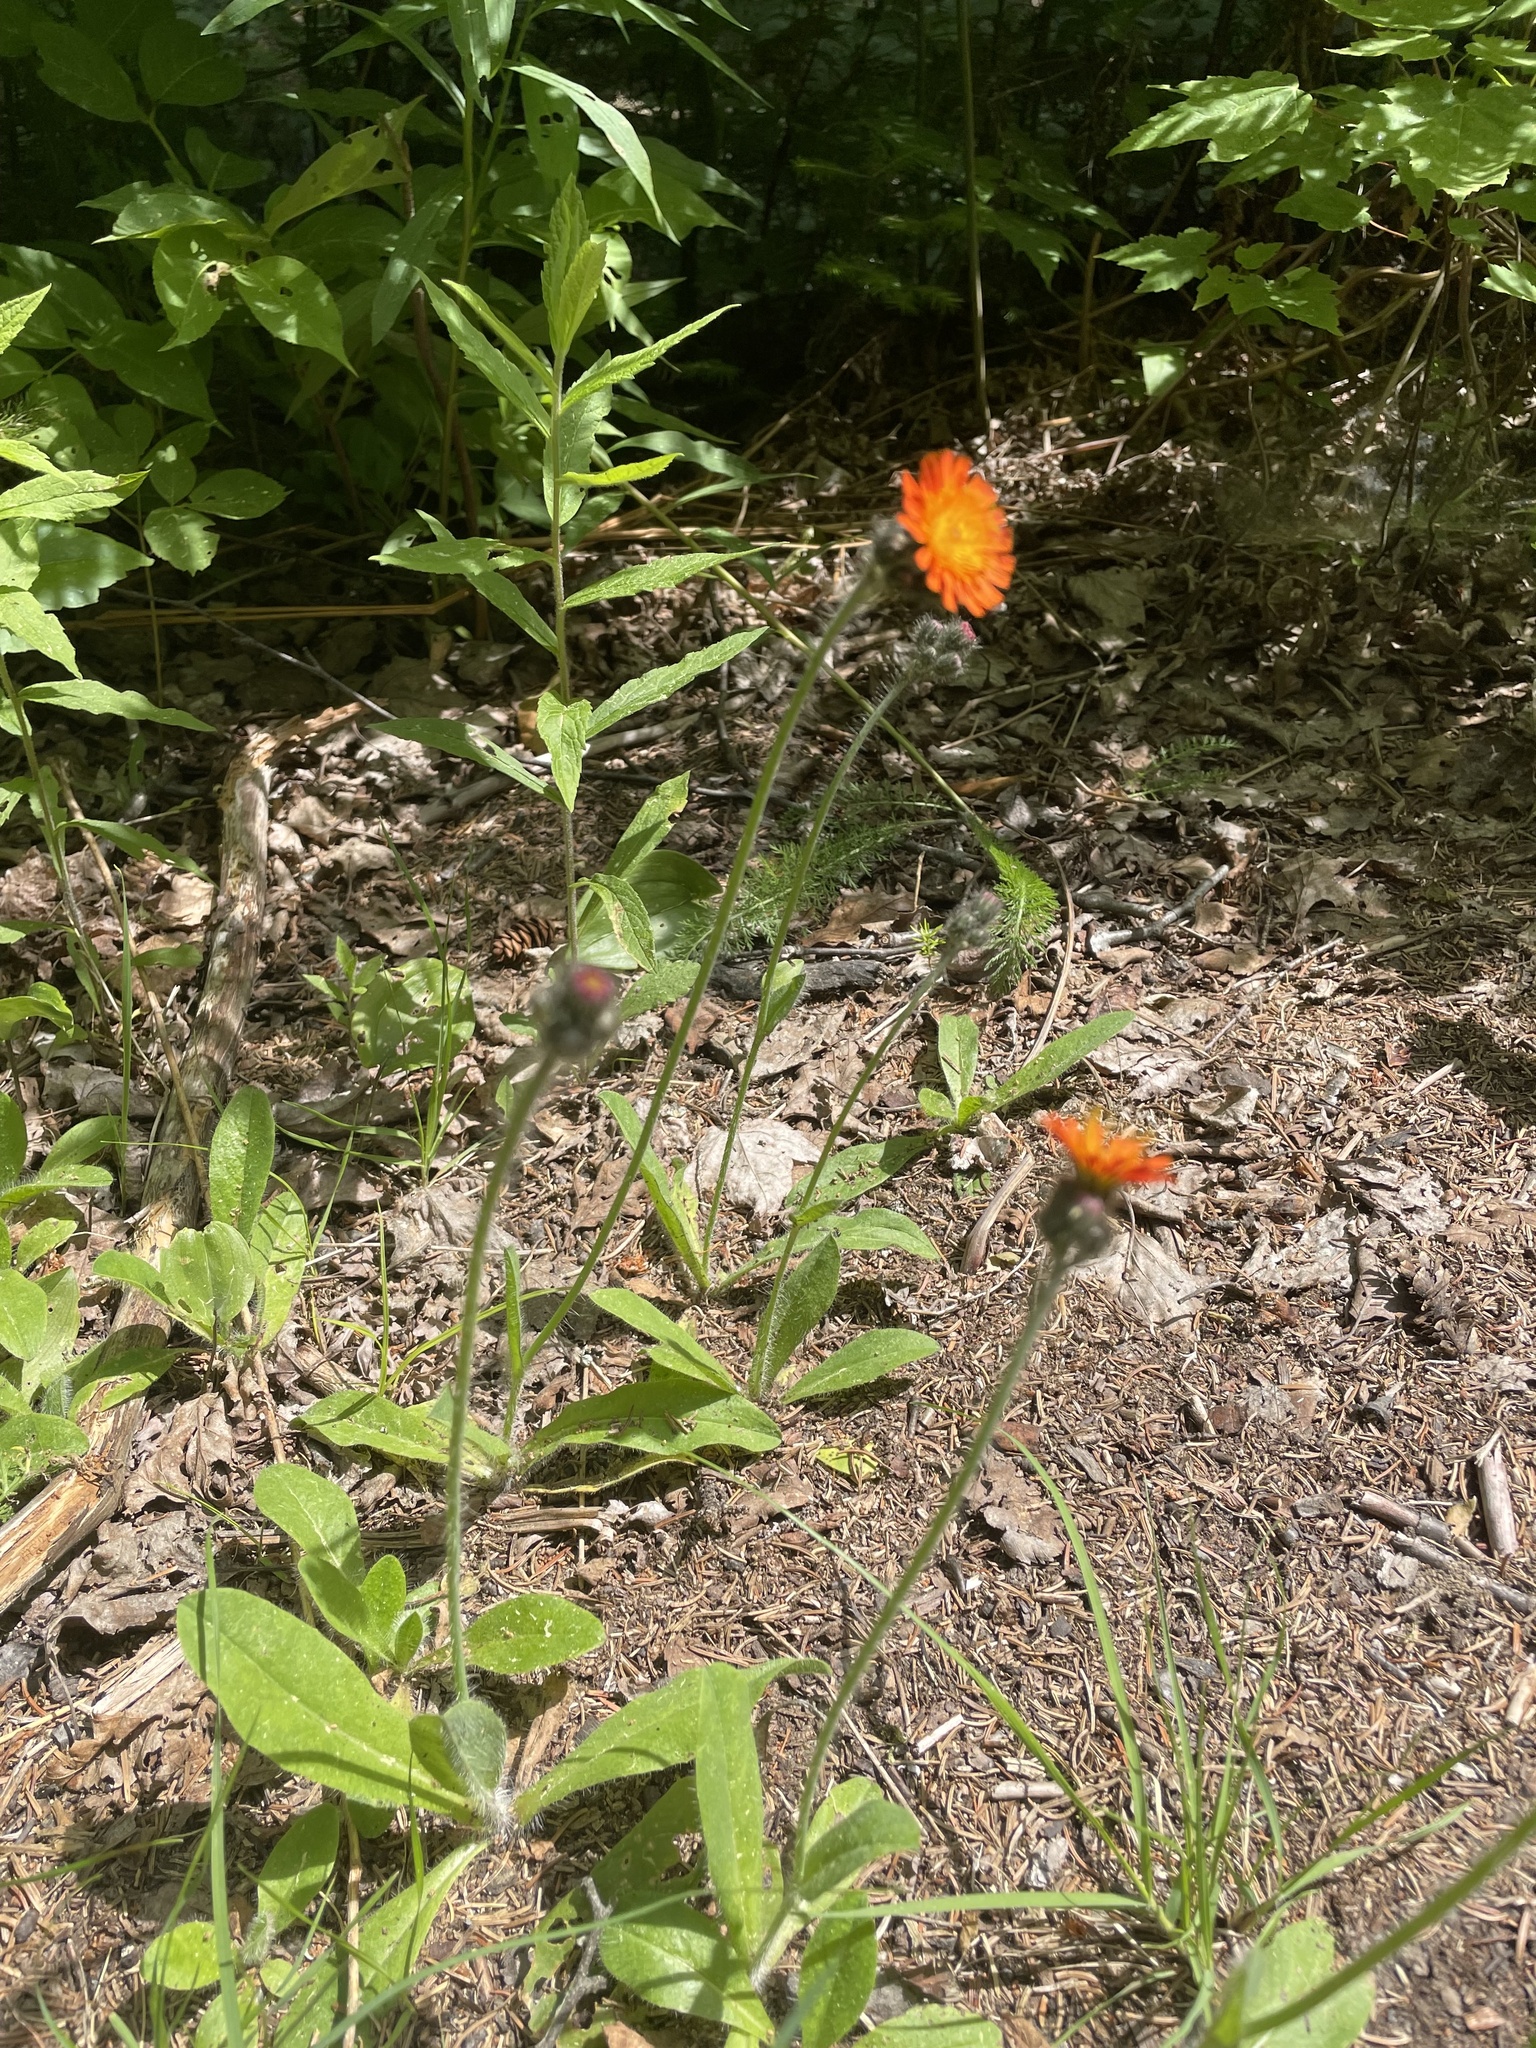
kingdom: Plantae
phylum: Tracheophyta
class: Magnoliopsida
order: Asterales
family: Asteraceae
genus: Pilosella
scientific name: Pilosella aurantiaca
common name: Fox-and-cubs
